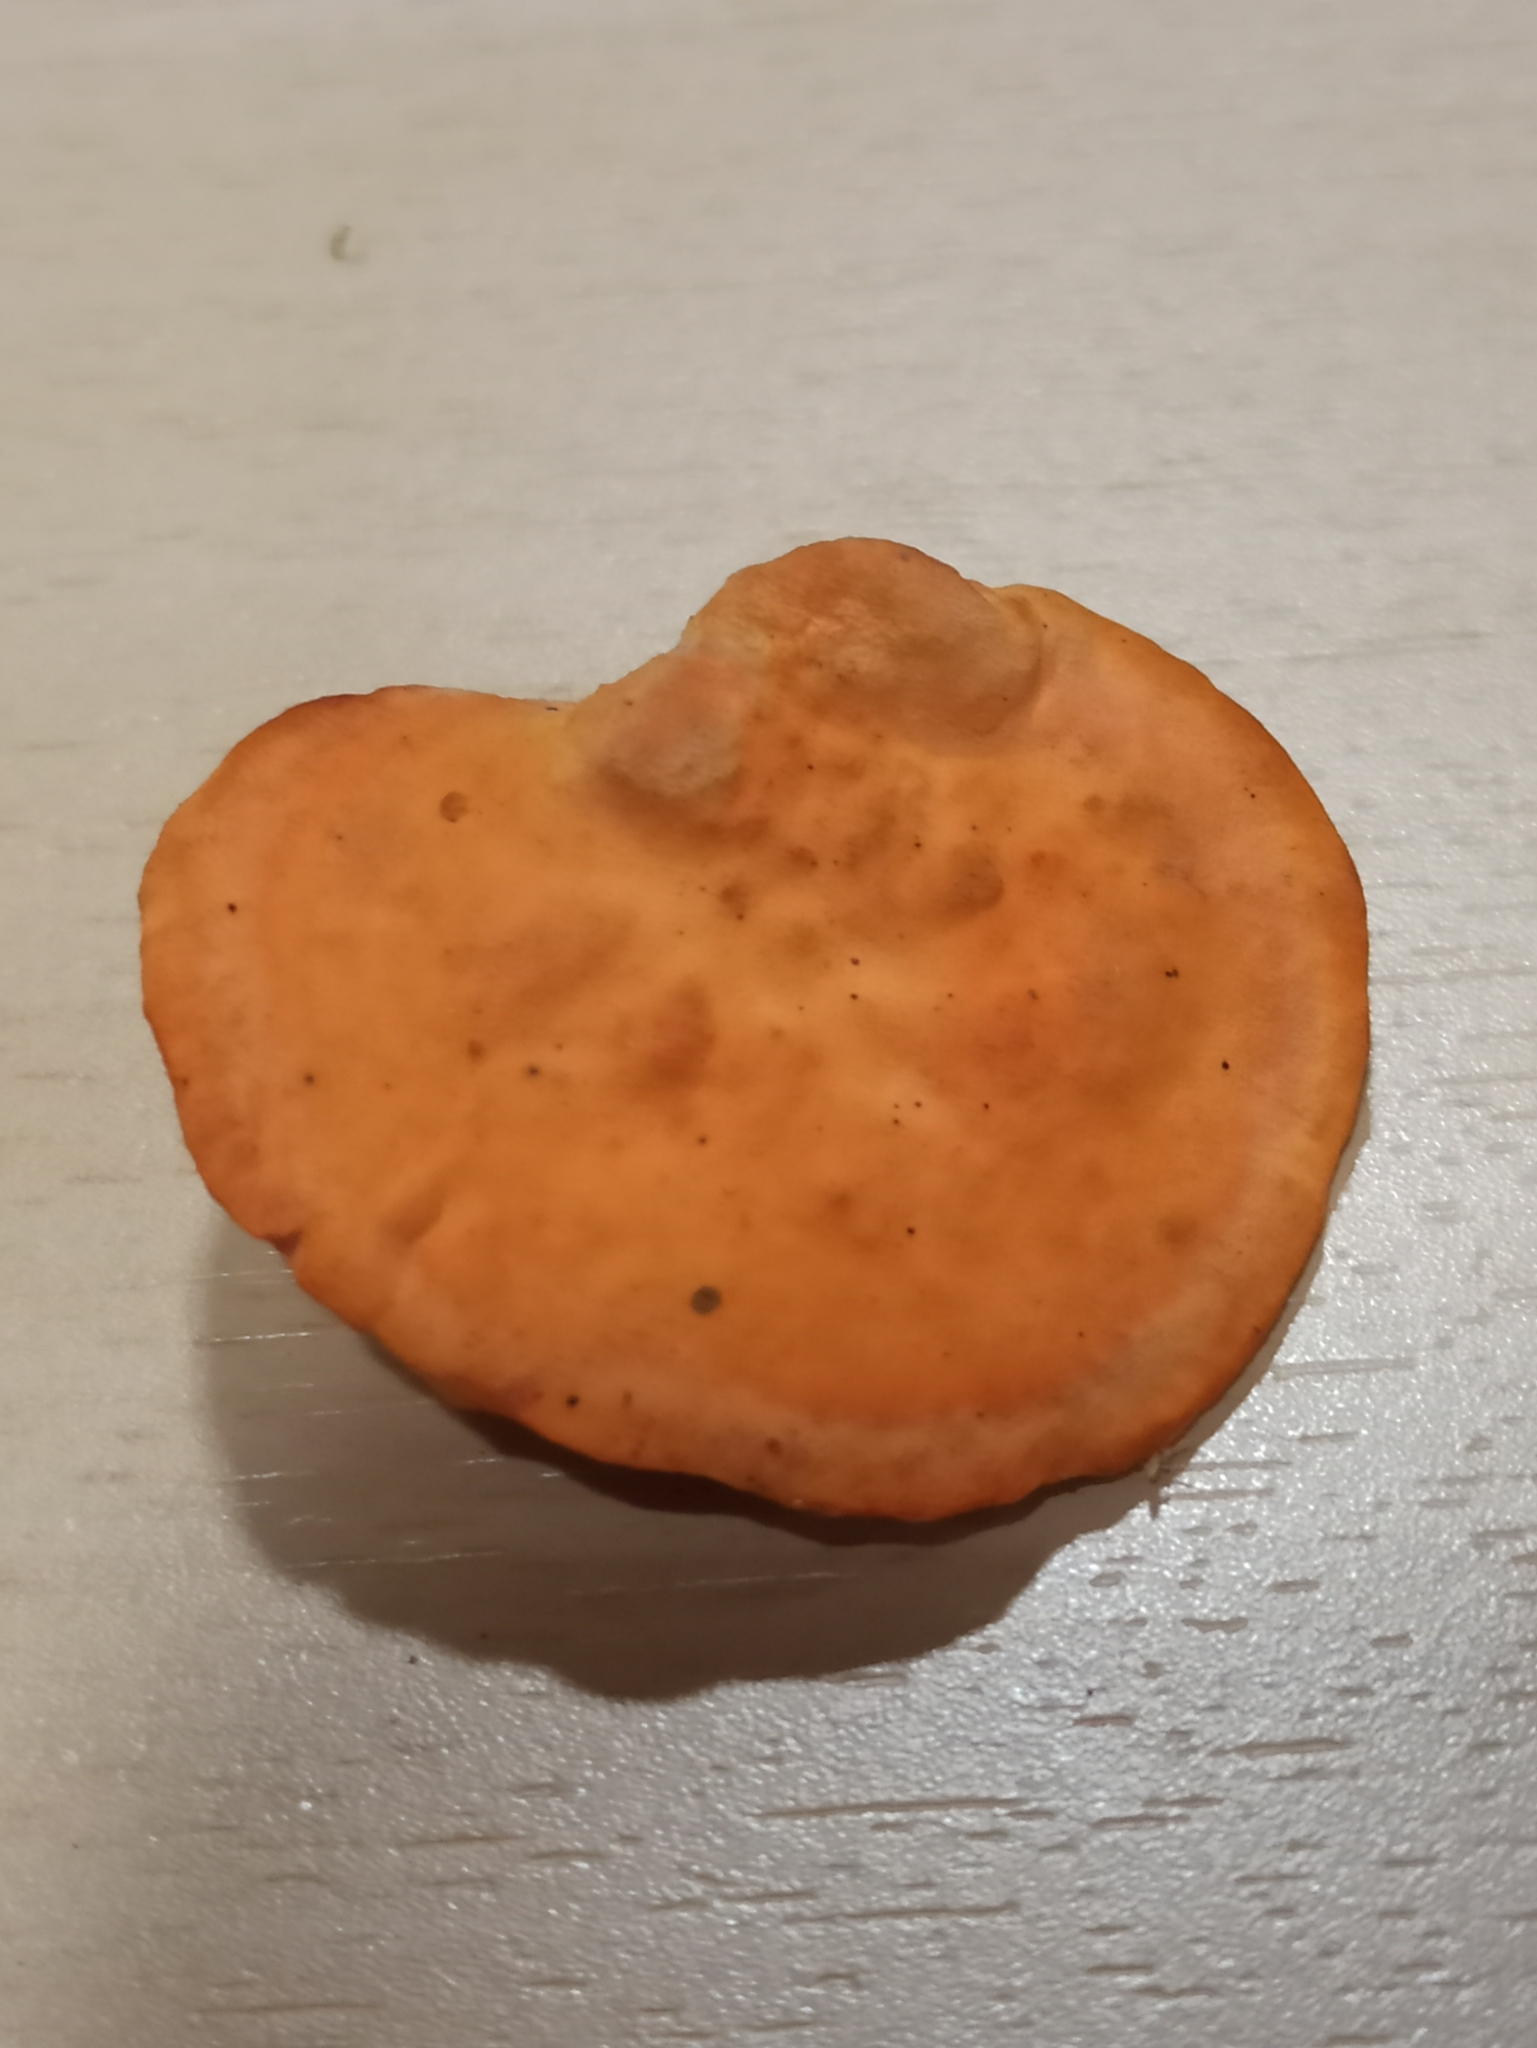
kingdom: Fungi
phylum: Basidiomycota
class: Agaricomycetes
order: Polyporales
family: Polyporaceae
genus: Trametes
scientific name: Trametes cinnabarina
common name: Northern cinnabar polypore
